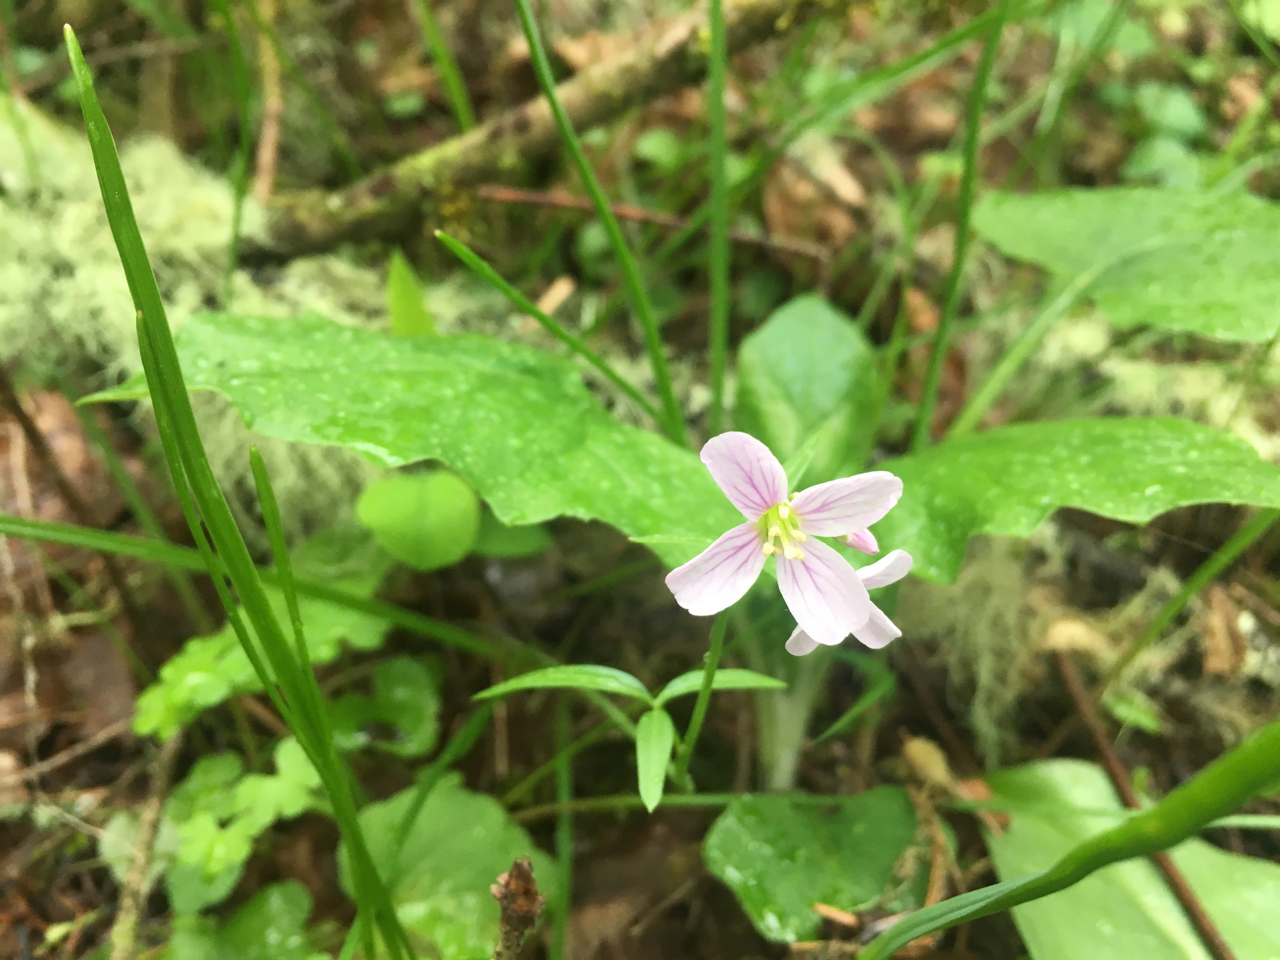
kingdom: Plantae
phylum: Tracheophyta
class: Magnoliopsida
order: Brassicales
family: Brassicaceae
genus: Cardamine
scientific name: Cardamine nuttallii
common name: Nuttall's toothwort
